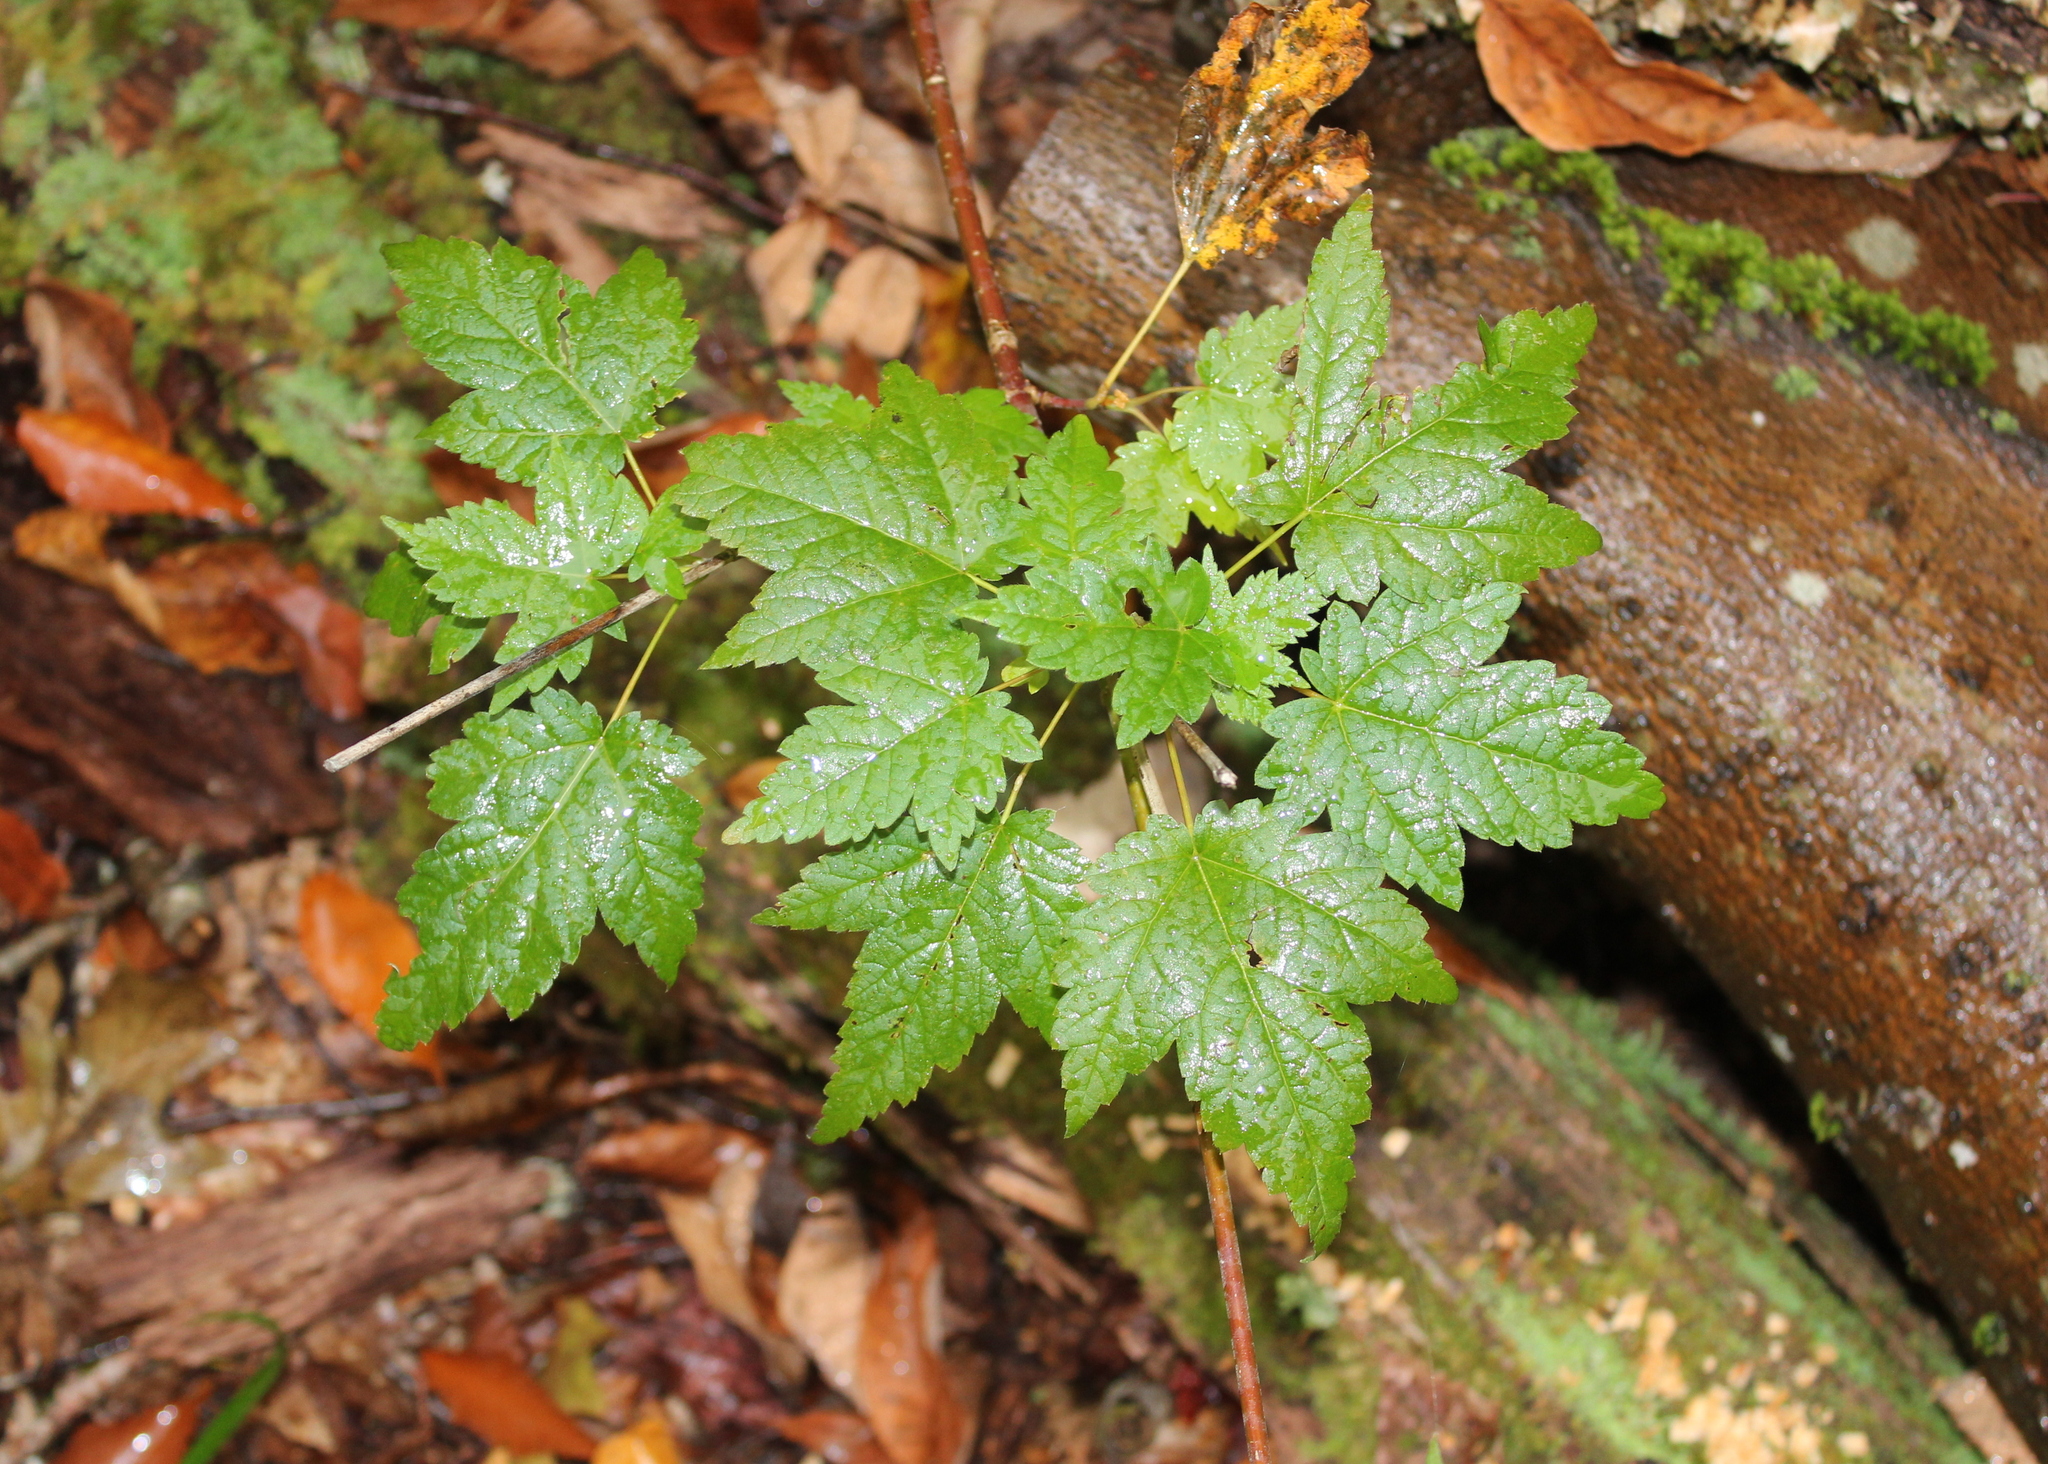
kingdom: Plantae
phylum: Tracheophyta
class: Magnoliopsida
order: Sapindales
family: Sapindaceae
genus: Acer
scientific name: Acer spicatum
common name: Mountain maple
